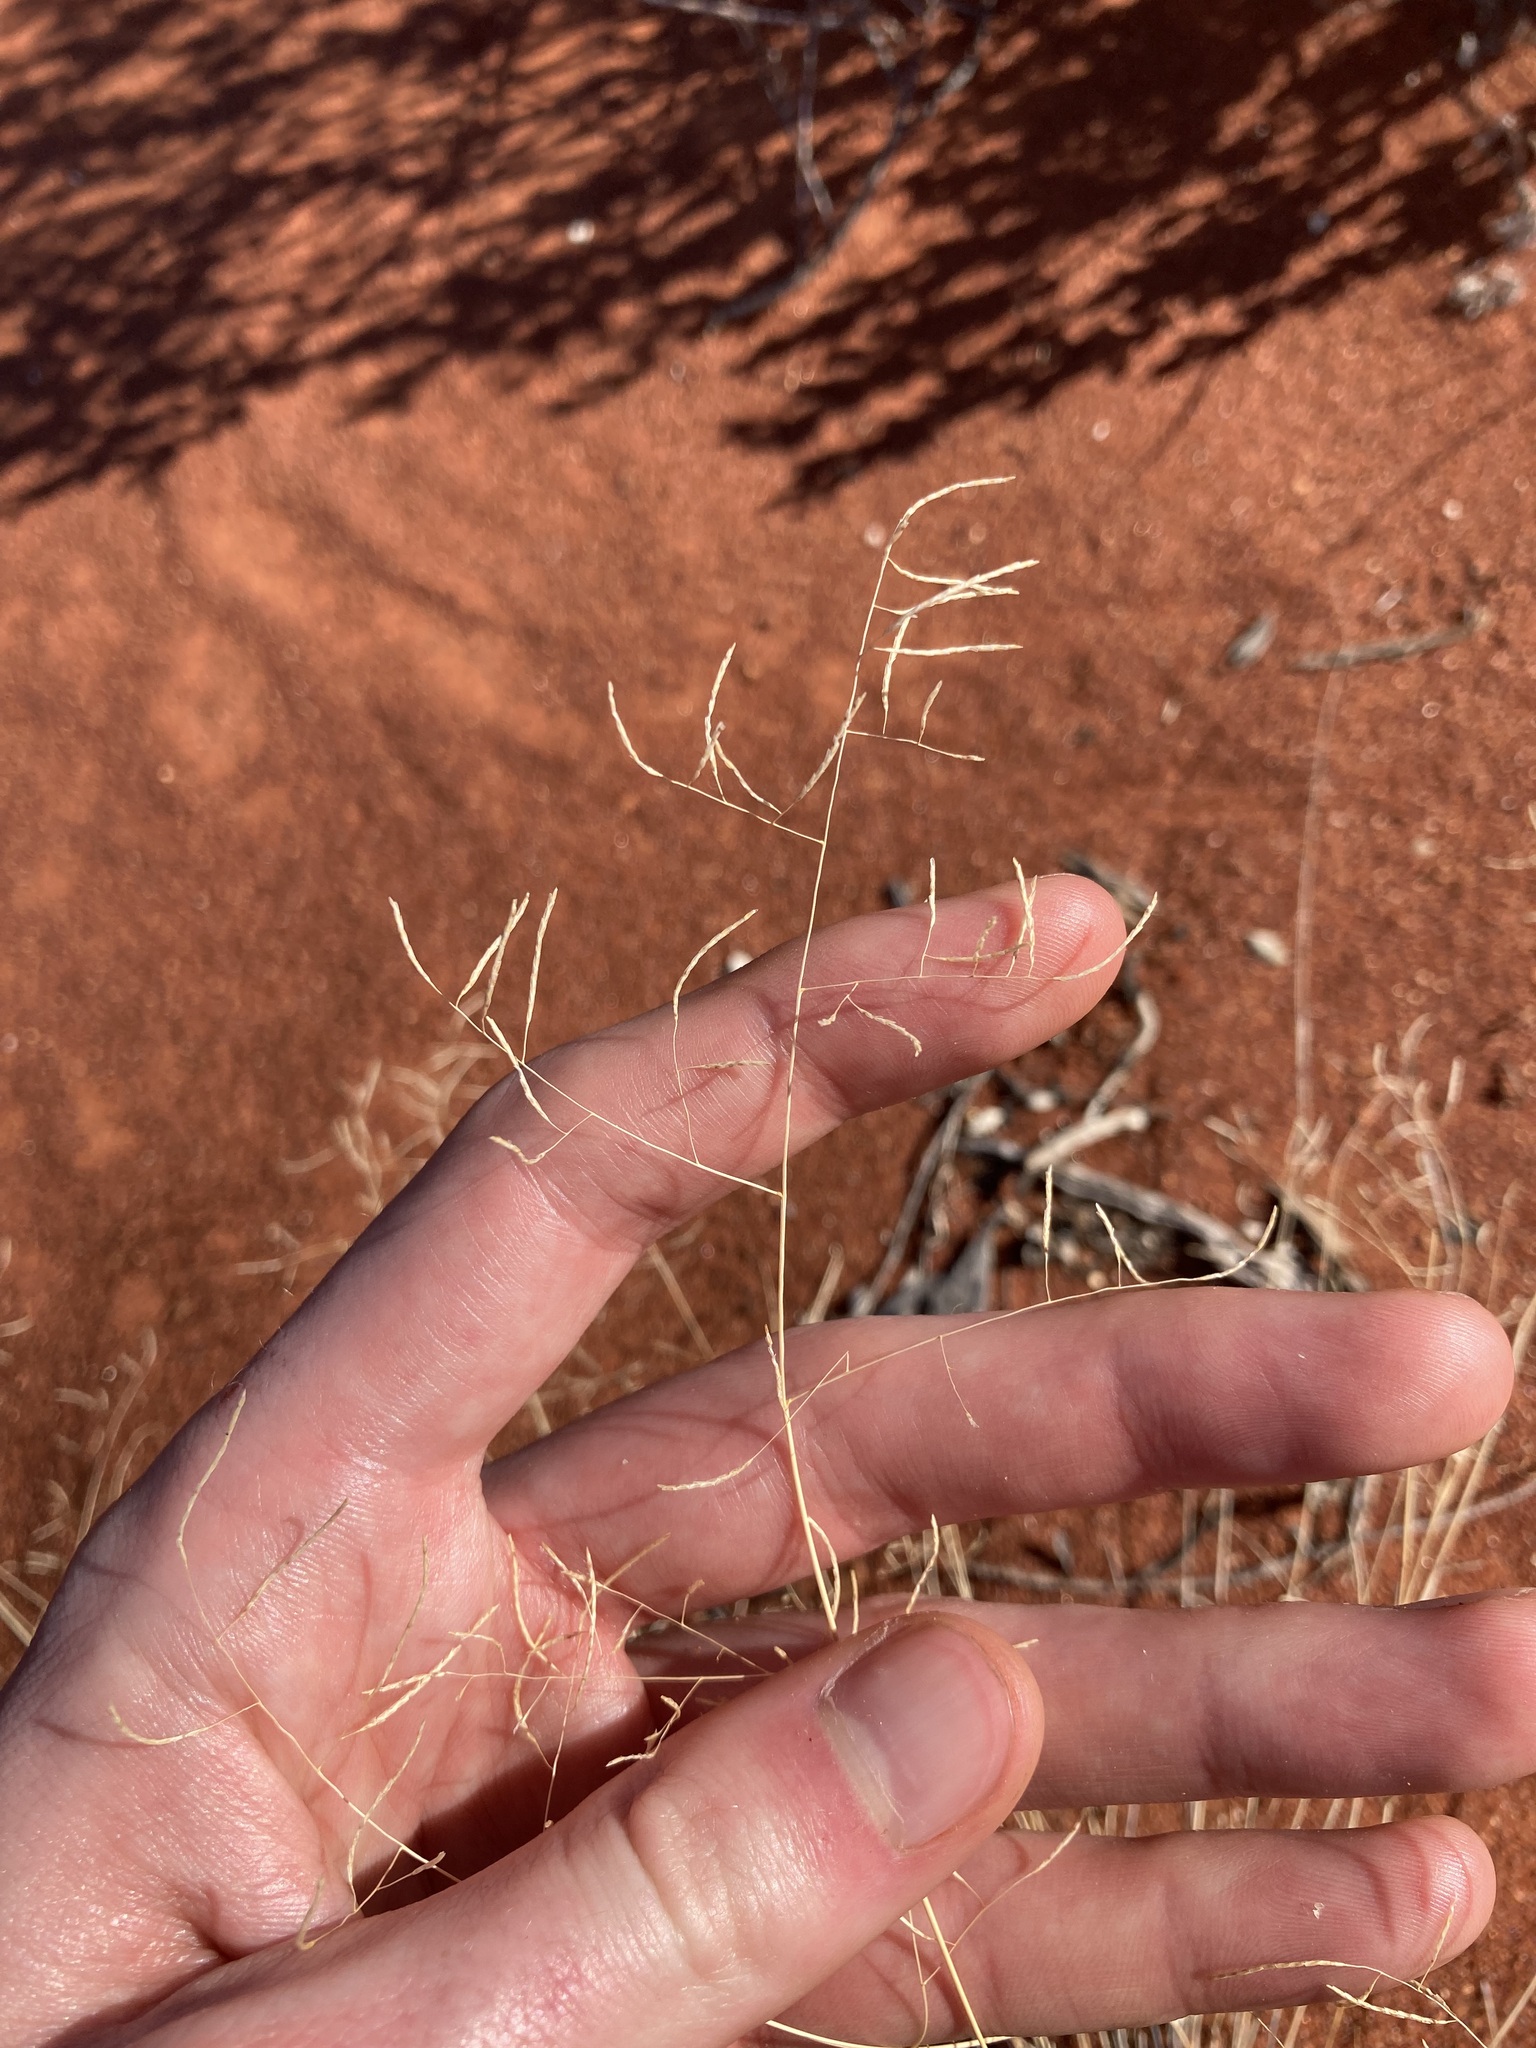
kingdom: Plantae
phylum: Tracheophyta
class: Liliopsida
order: Poales
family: Poaceae
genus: Eragrostis
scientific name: Eragrostis pergracilis
